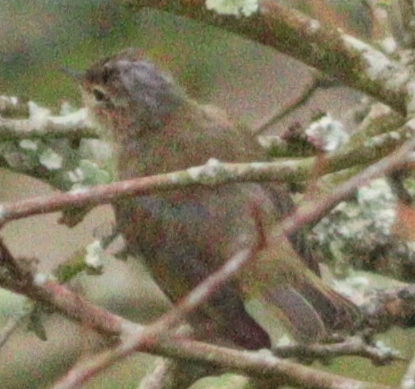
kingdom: Animalia
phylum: Chordata
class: Aves
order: Passeriformes
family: Phylloscopidae
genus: Phylloscopus
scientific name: Phylloscopus collybita
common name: Common chiffchaff
